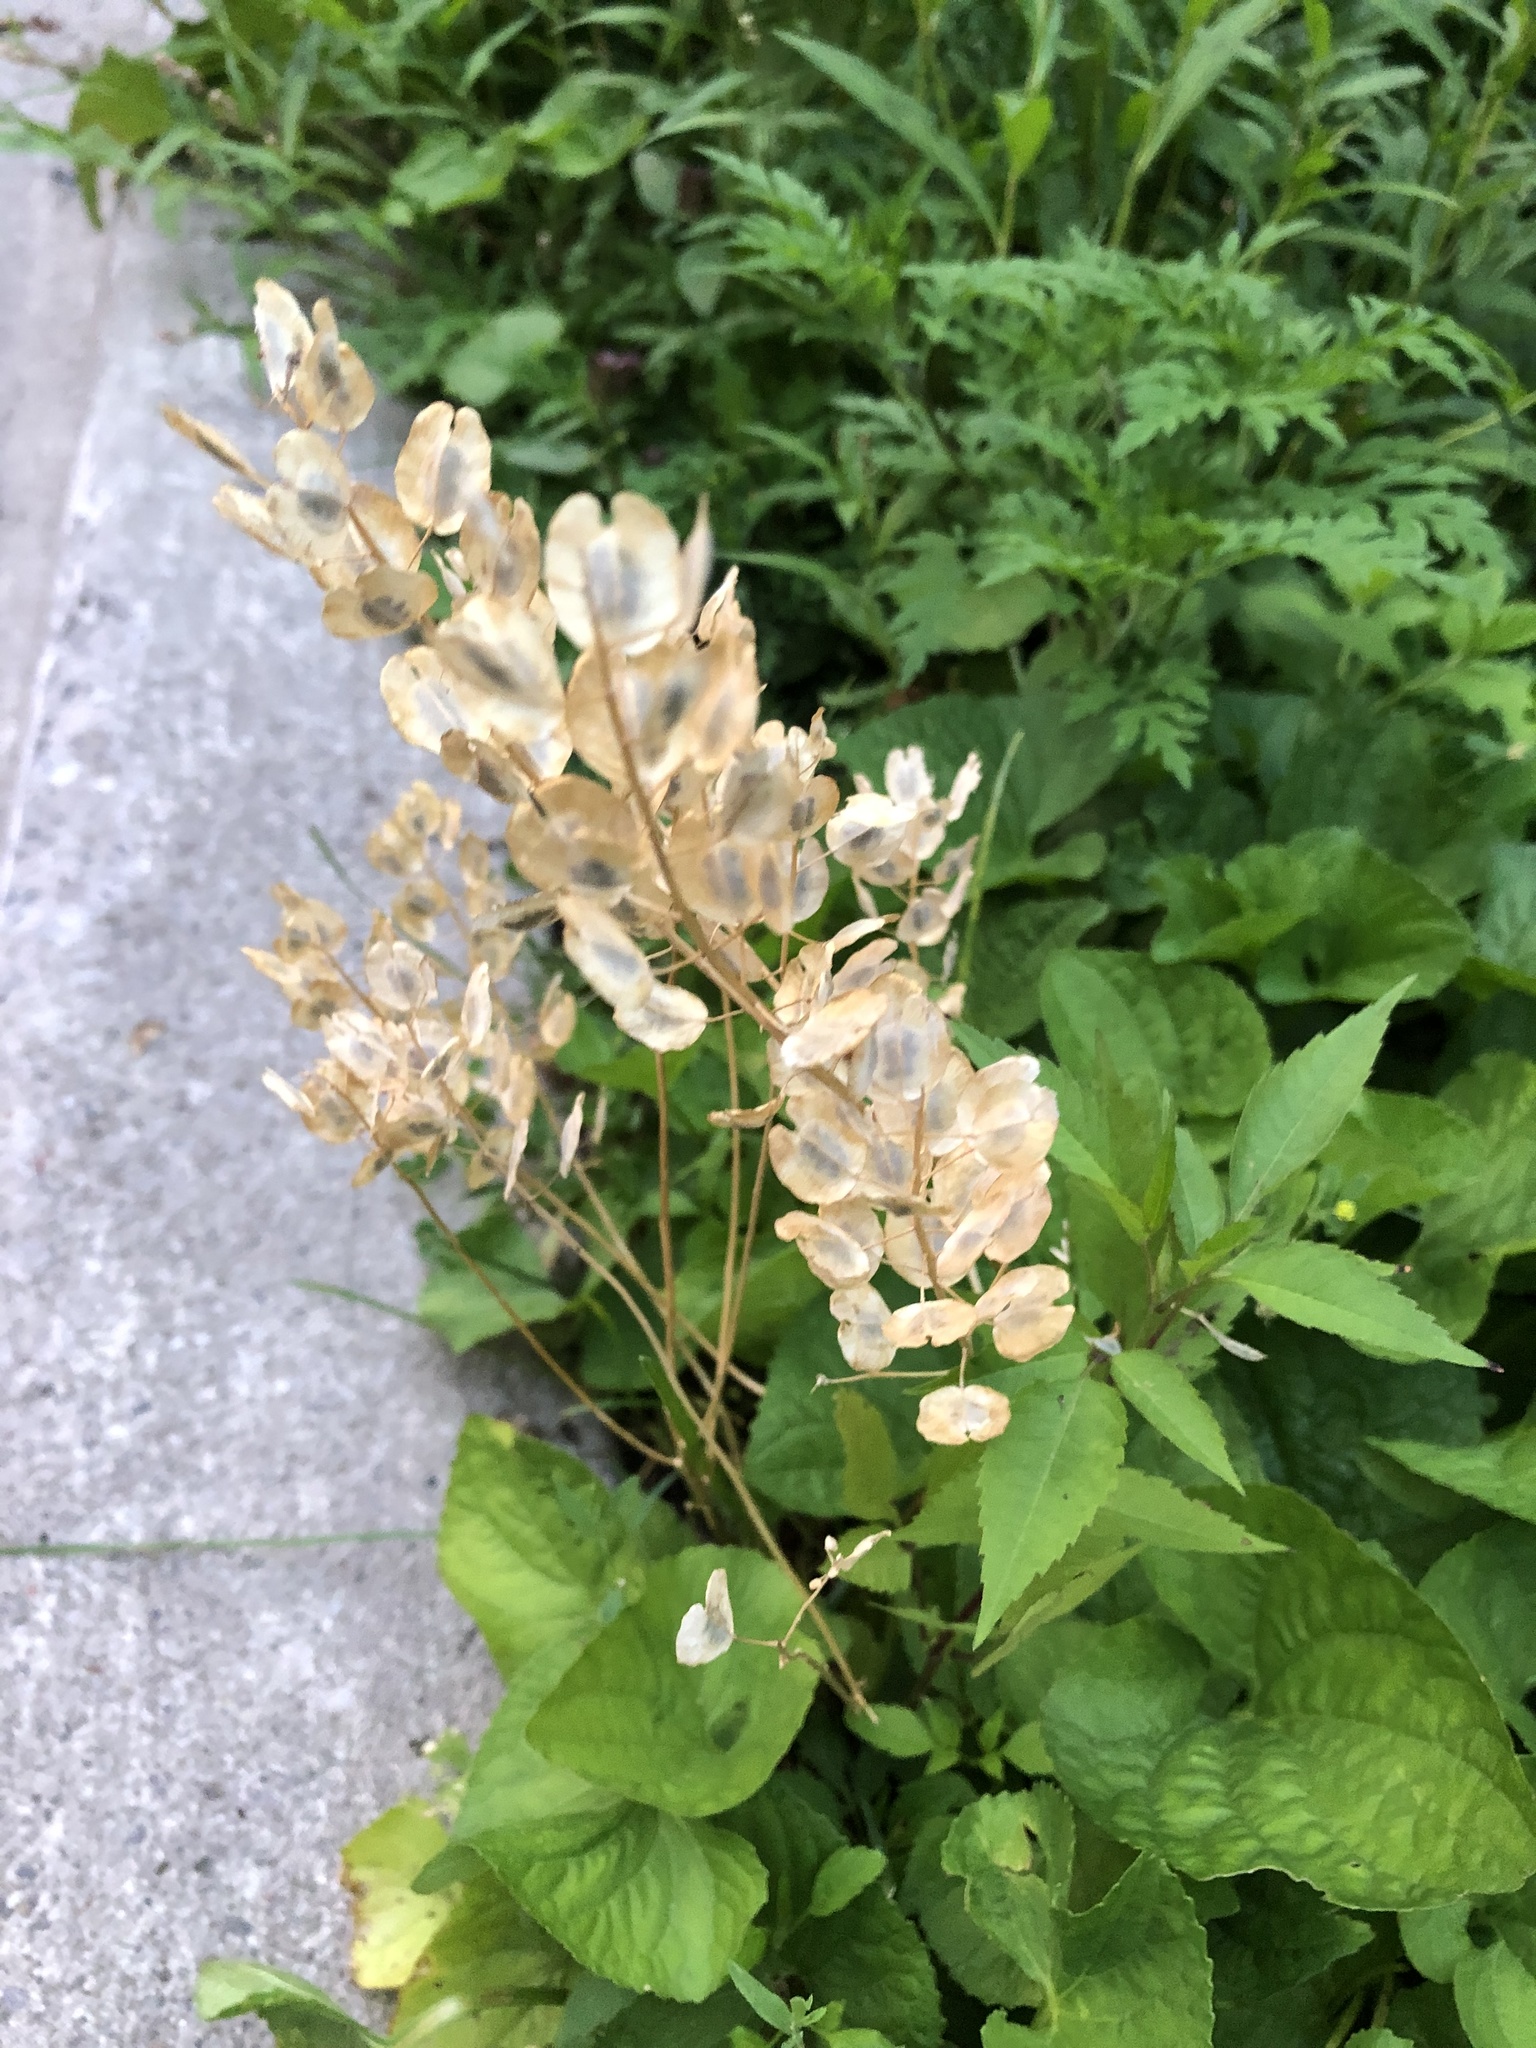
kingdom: Plantae
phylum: Tracheophyta
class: Magnoliopsida
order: Brassicales
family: Brassicaceae
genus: Thlaspi
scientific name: Thlaspi arvense
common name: Field pennycress
